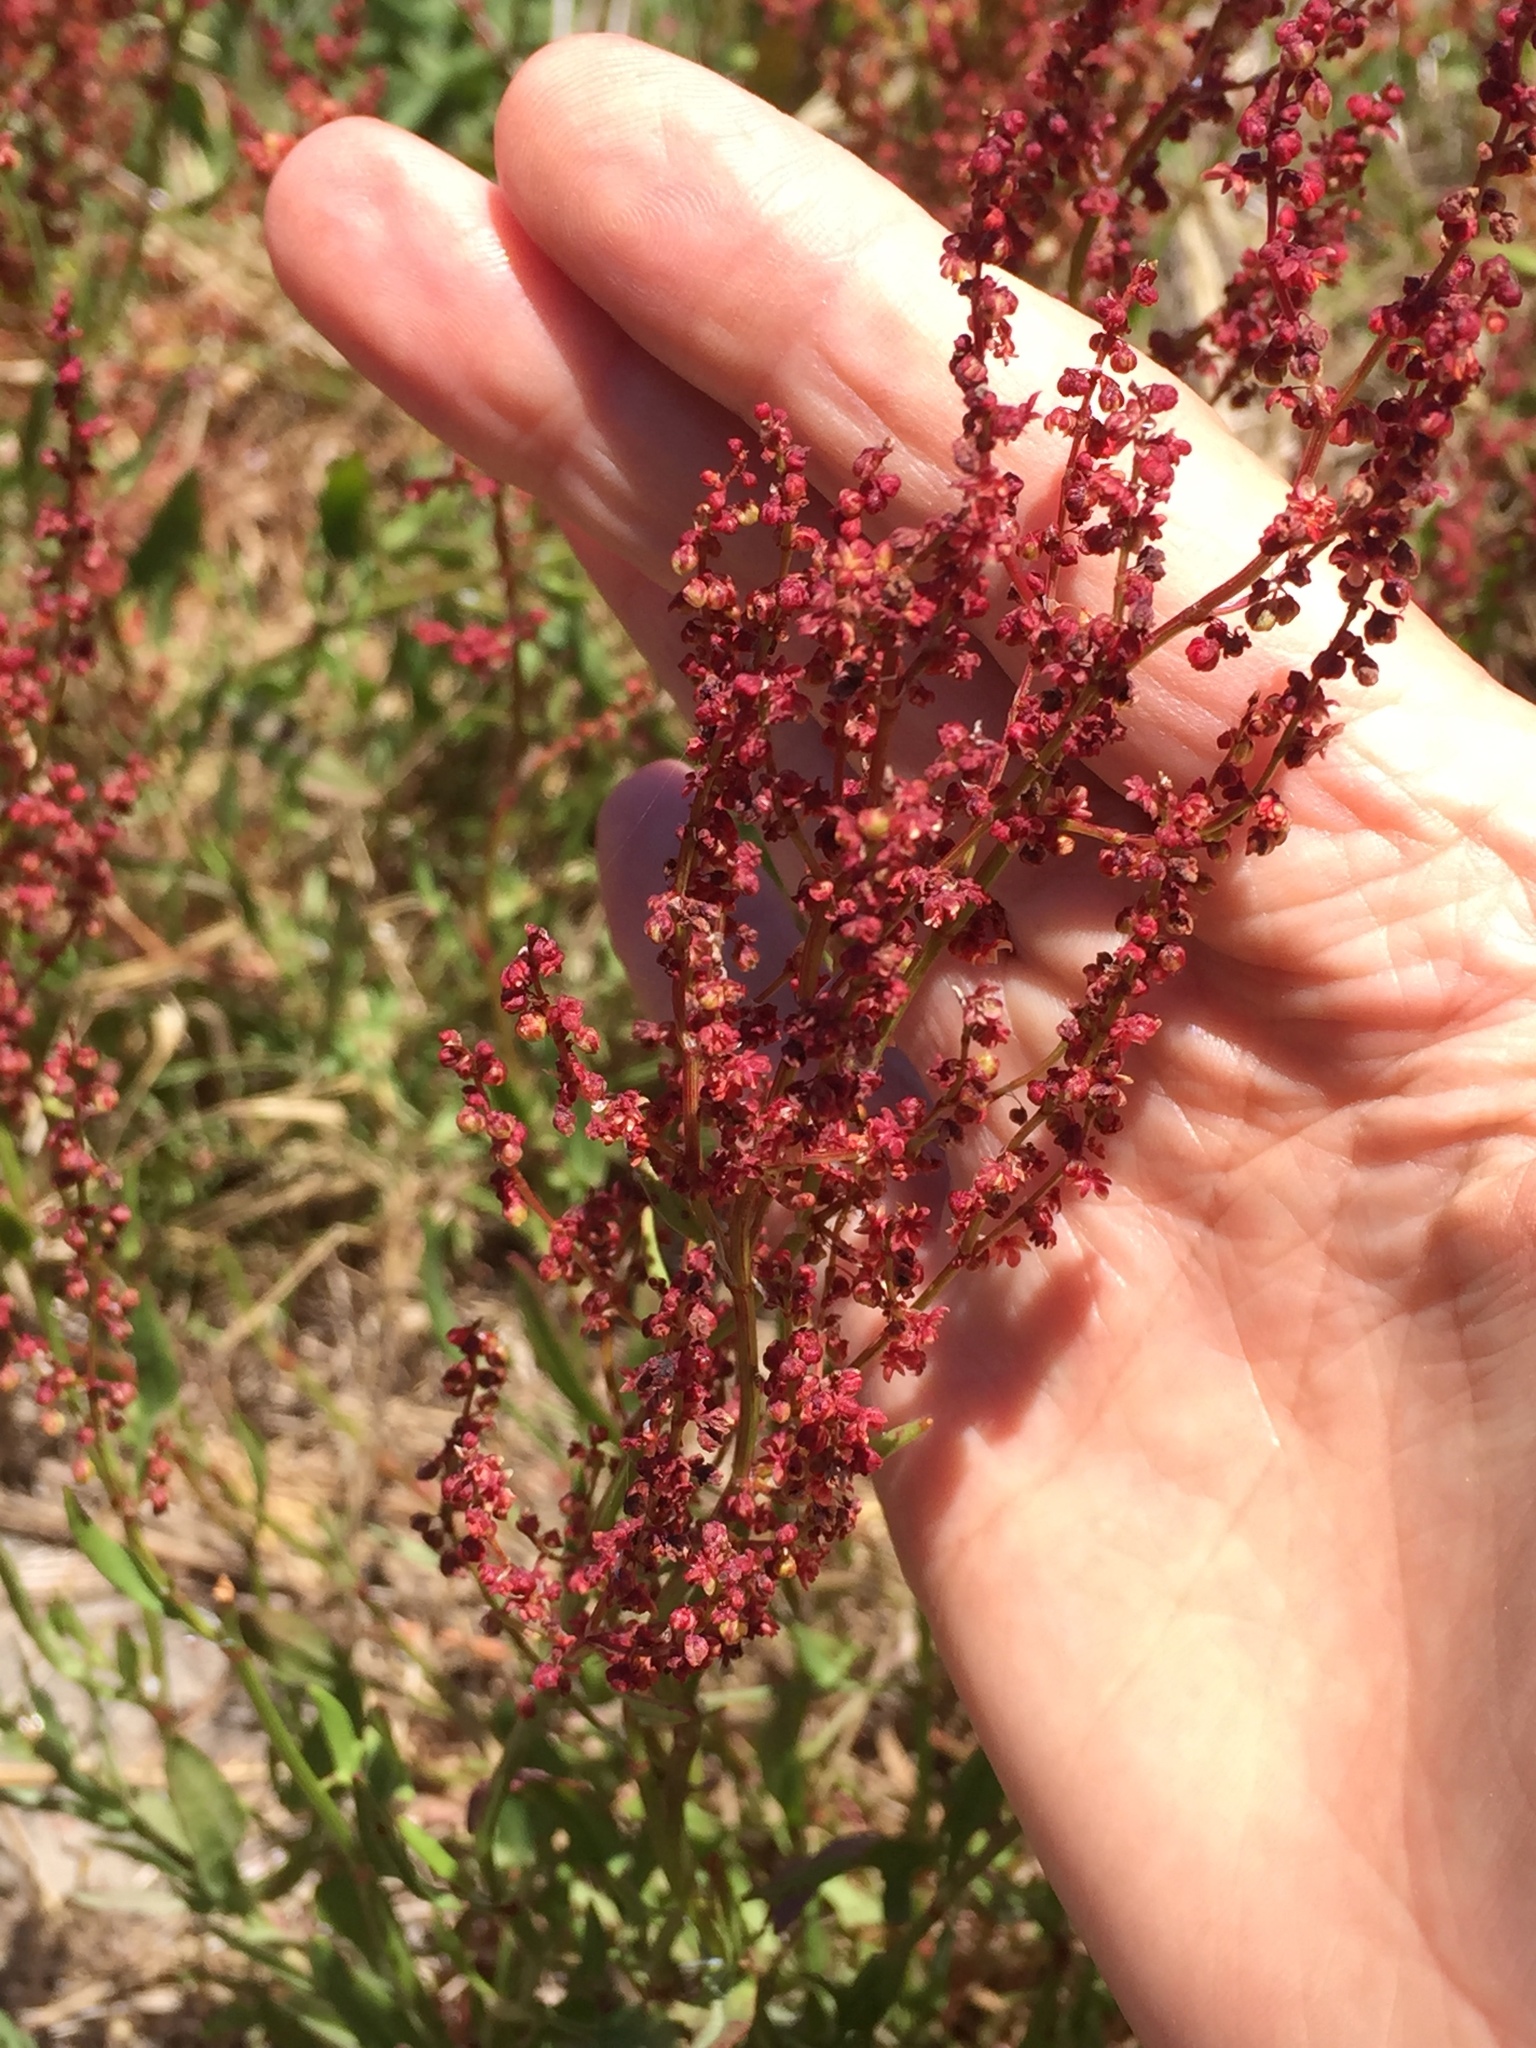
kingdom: Plantae
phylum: Tracheophyta
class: Magnoliopsida
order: Caryophyllales
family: Polygonaceae
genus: Rumex
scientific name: Rumex acetosella
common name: Common sheep sorrel
